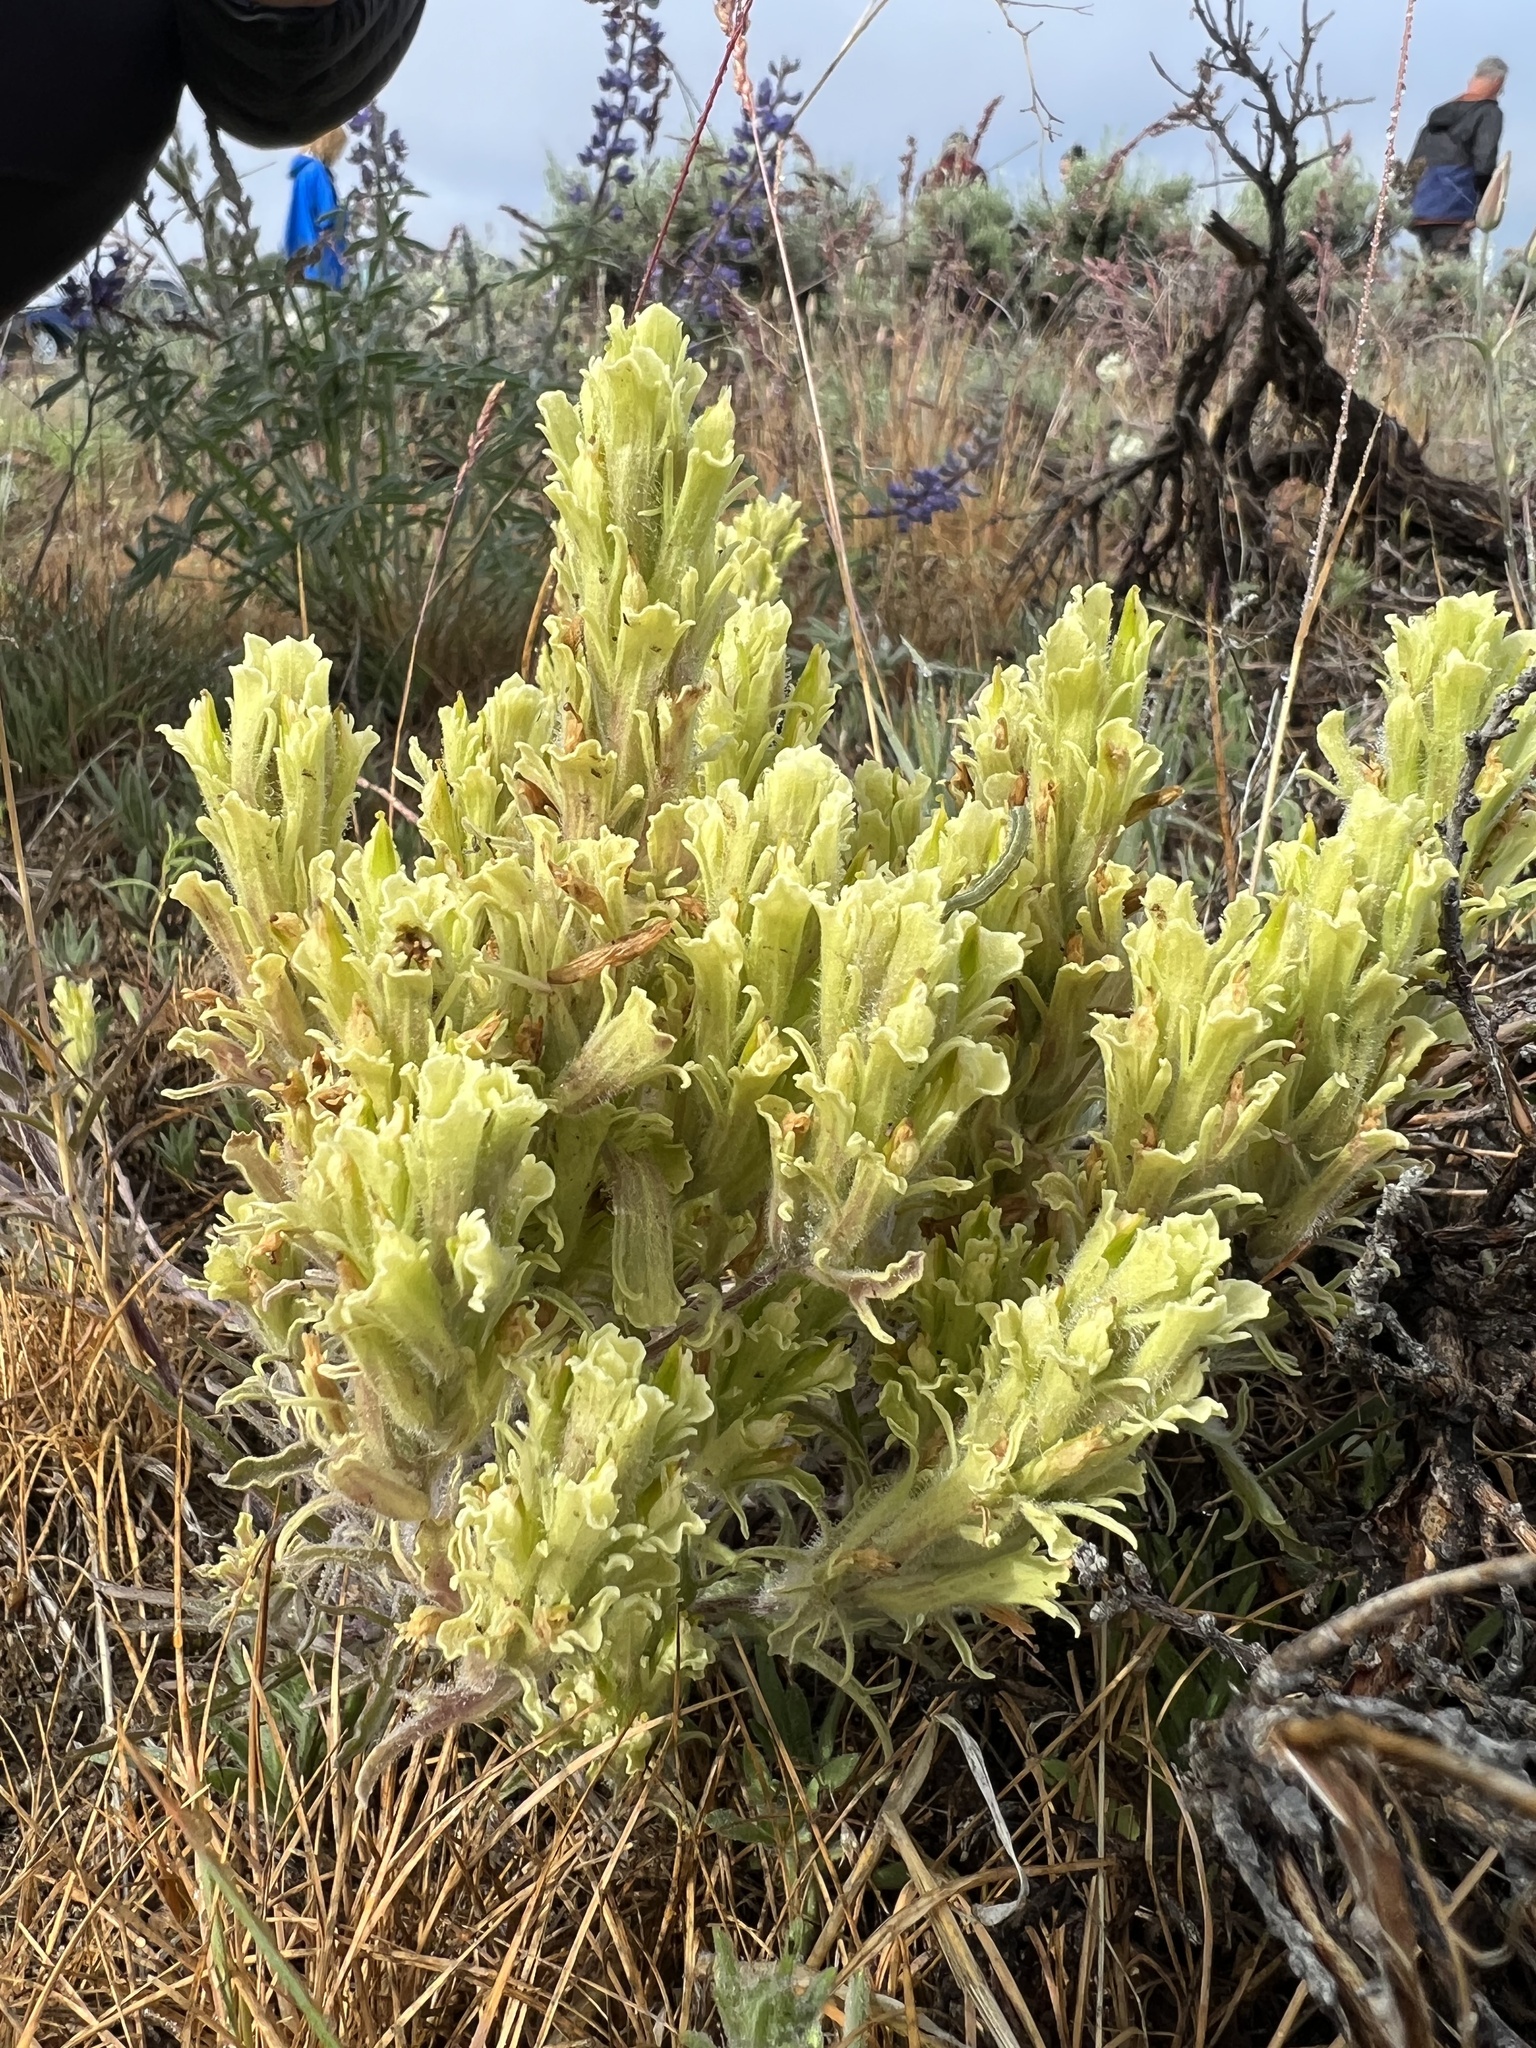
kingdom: Plantae
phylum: Tracheophyta
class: Magnoliopsida
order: Lamiales
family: Orobanchaceae
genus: Castilleja
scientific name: Castilleja pilosa
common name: Hairy paintbrush
